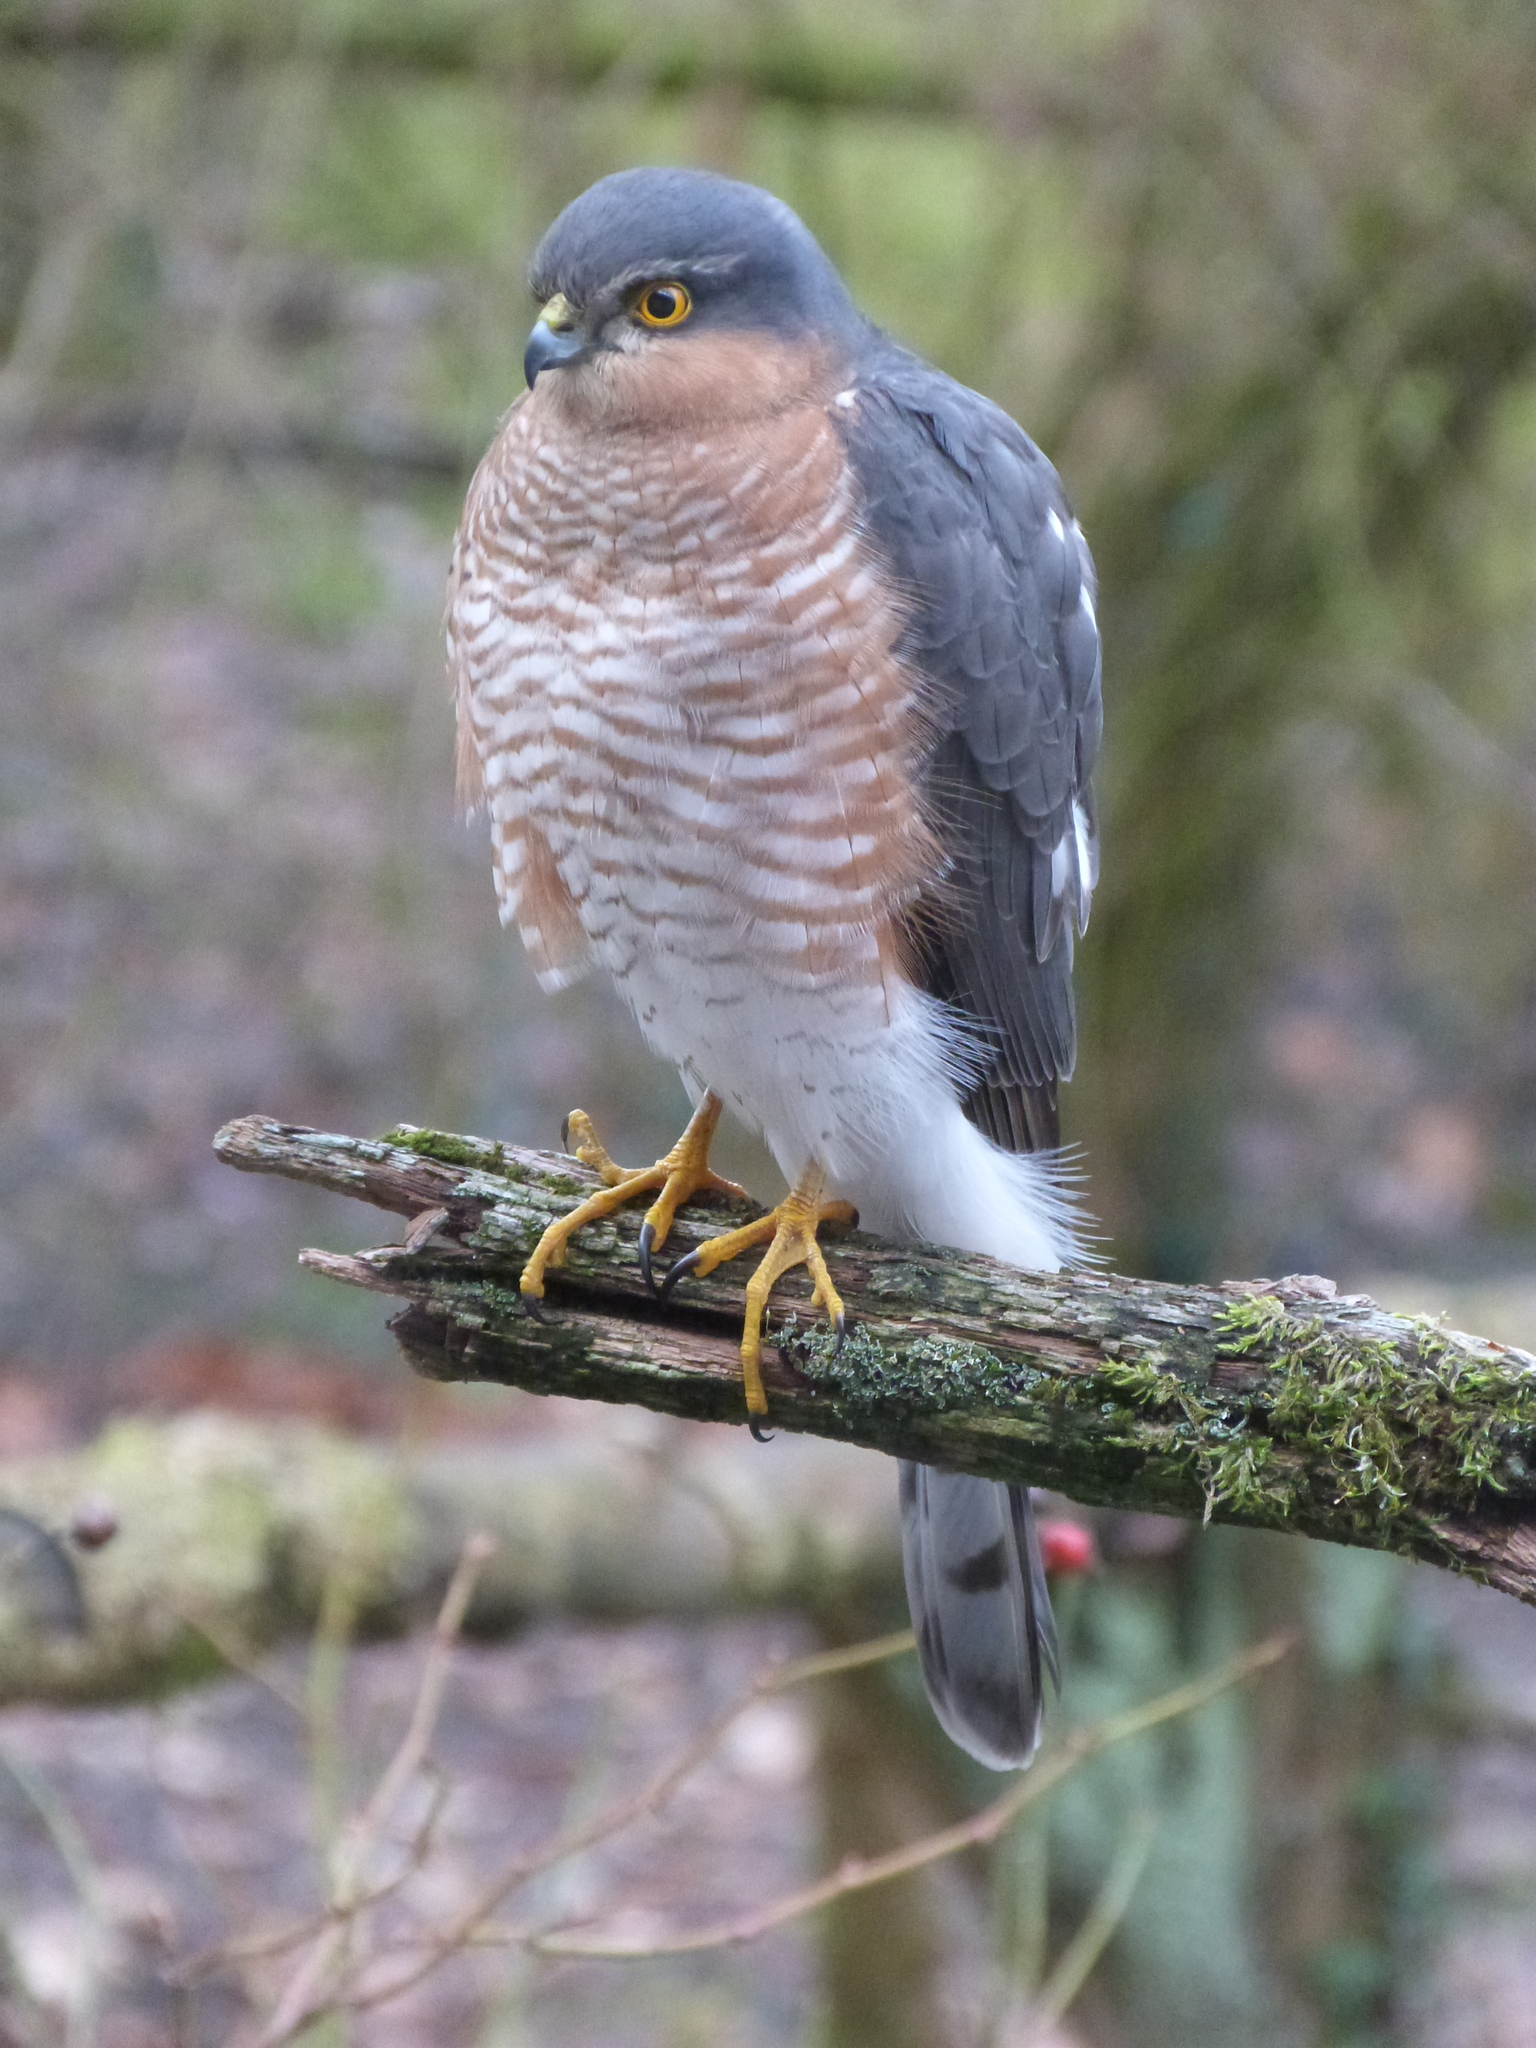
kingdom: Animalia
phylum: Chordata
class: Aves
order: Accipitriformes
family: Accipitridae
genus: Accipiter
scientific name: Accipiter nisus
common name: Eurasian sparrowhawk
